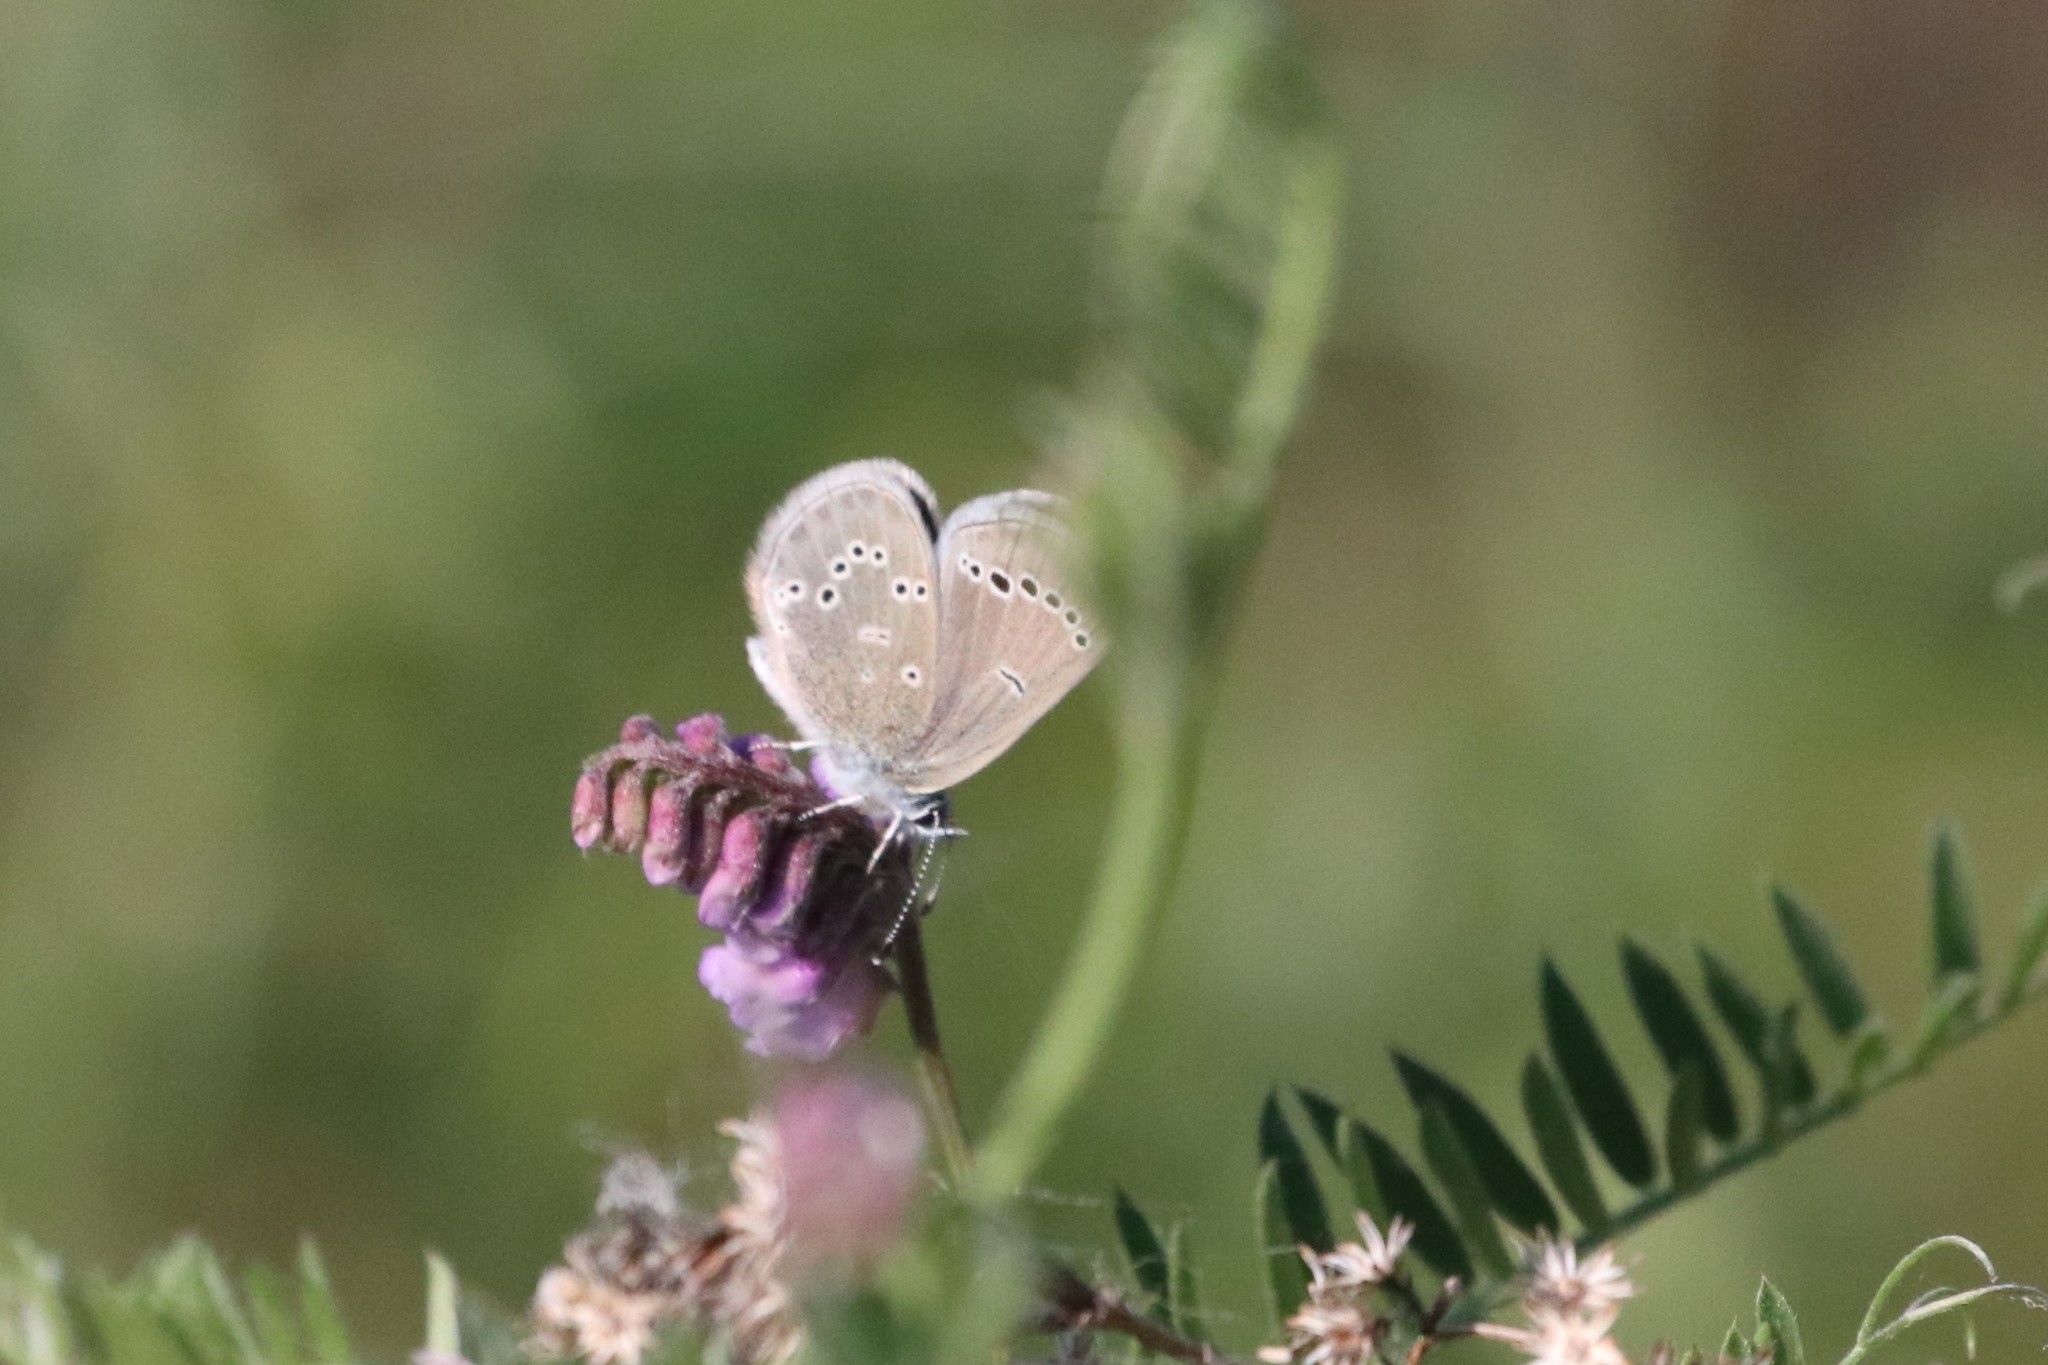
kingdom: Animalia
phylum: Arthropoda
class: Insecta
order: Lepidoptera
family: Lycaenidae
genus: Glaucopsyche
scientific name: Glaucopsyche lygdamus
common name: Silvery blue
